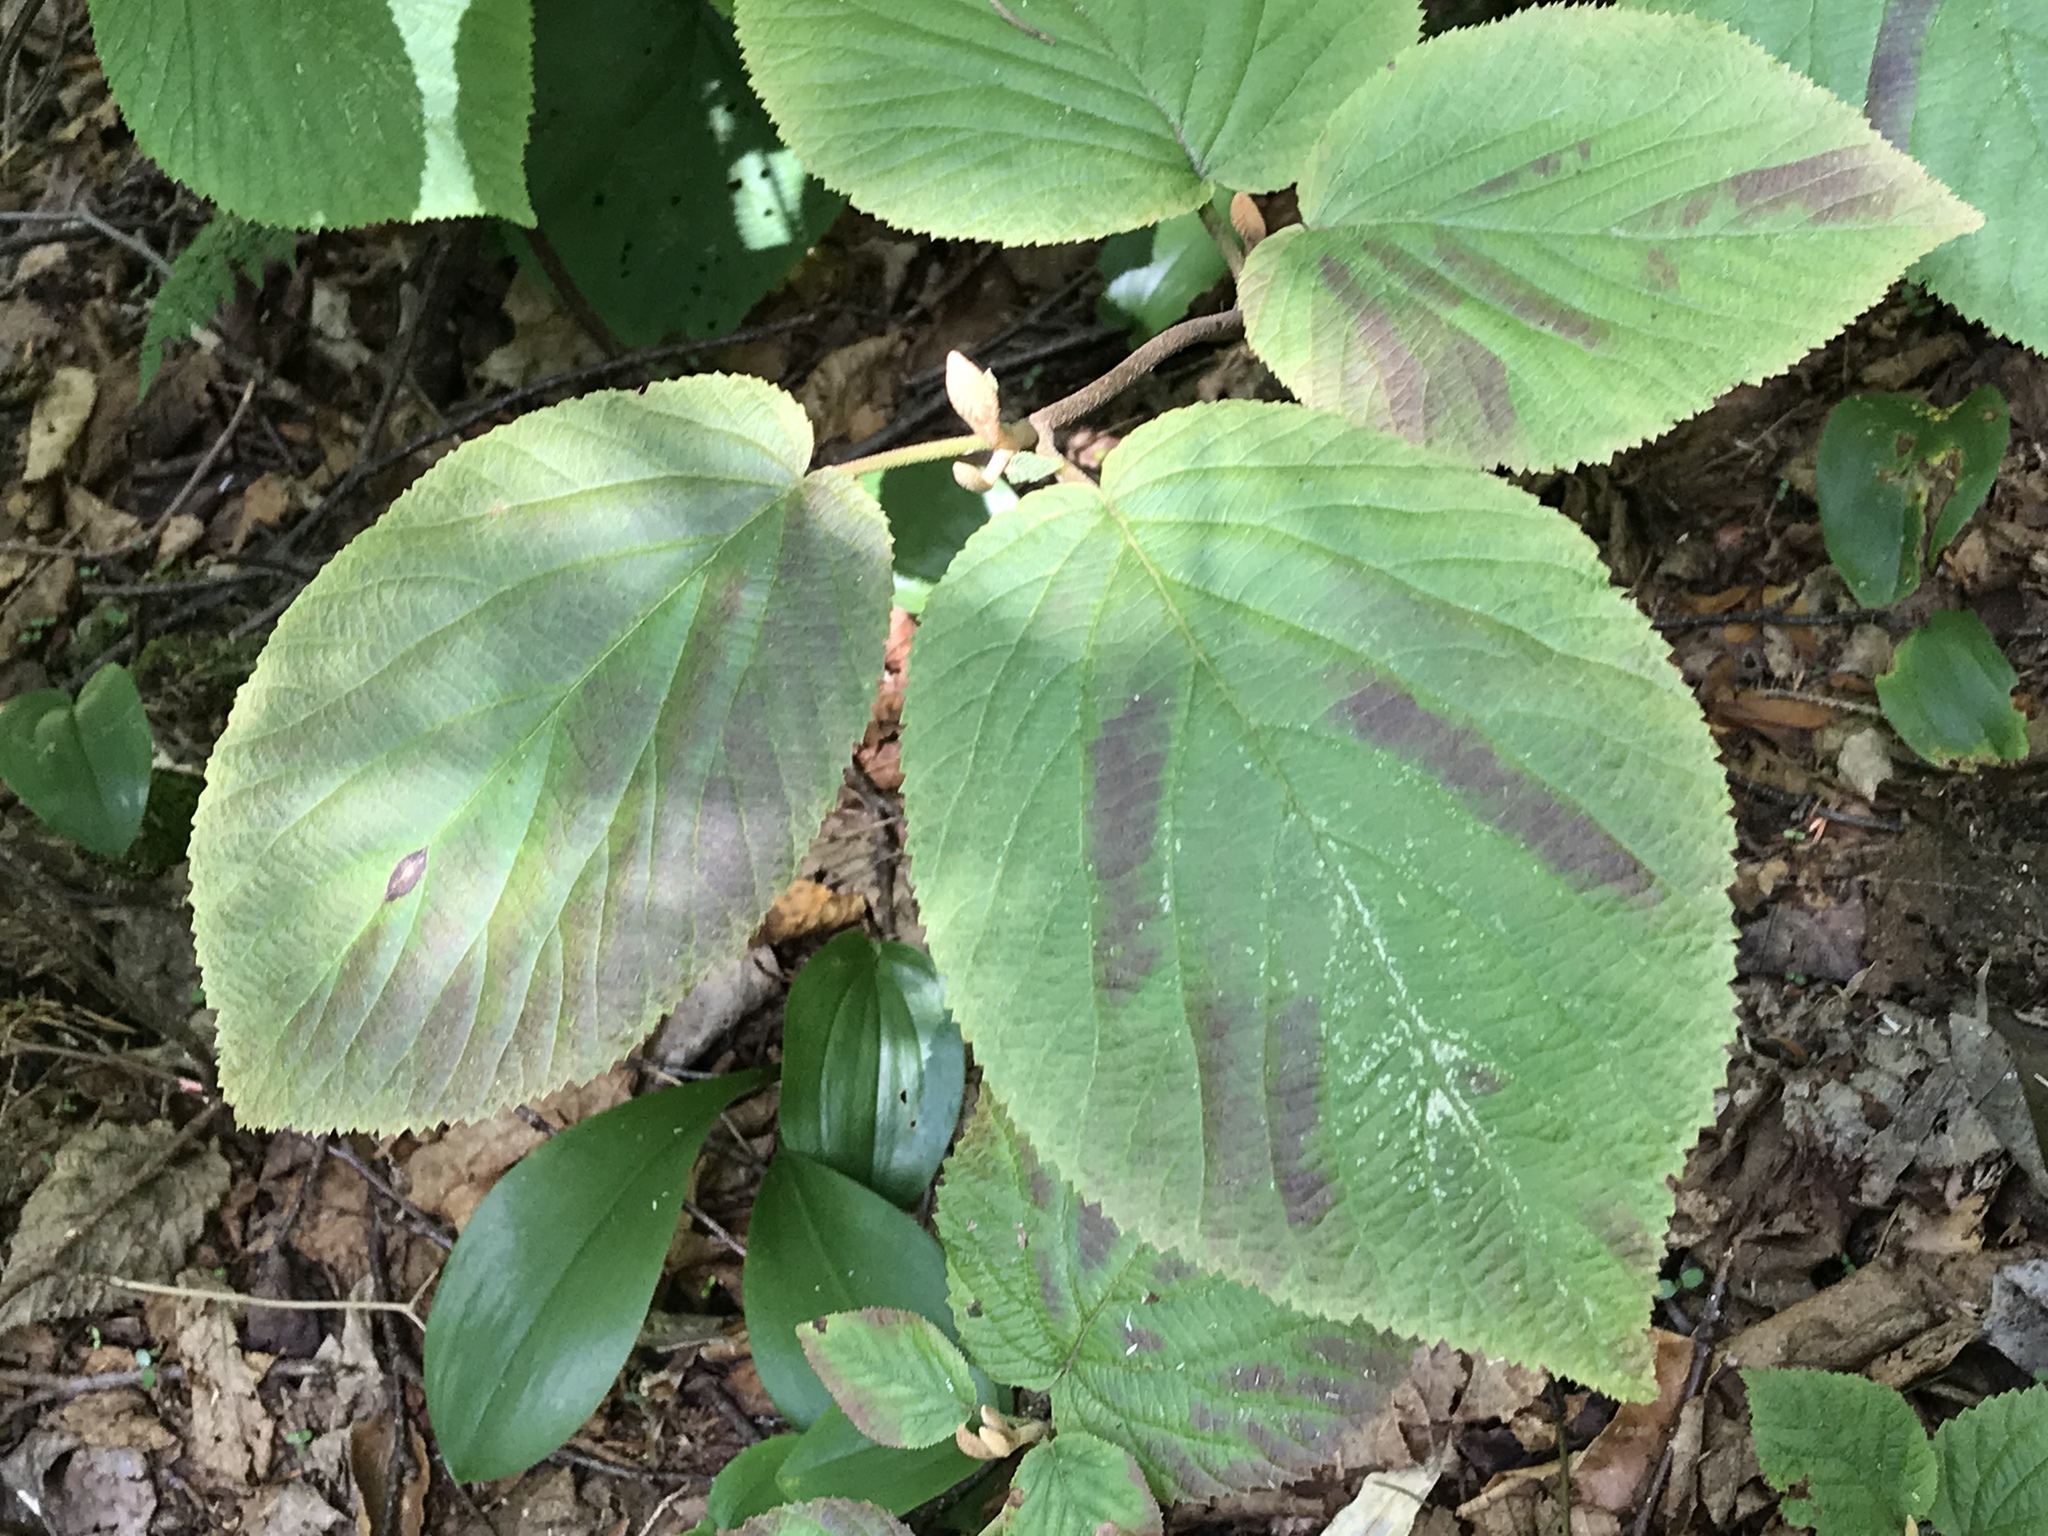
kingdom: Plantae
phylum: Tracheophyta
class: Magnoliopsida
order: Dipsacales
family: Viburnaceae
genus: Viburnum
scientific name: Viburnum lantanoides
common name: Hobblebush
